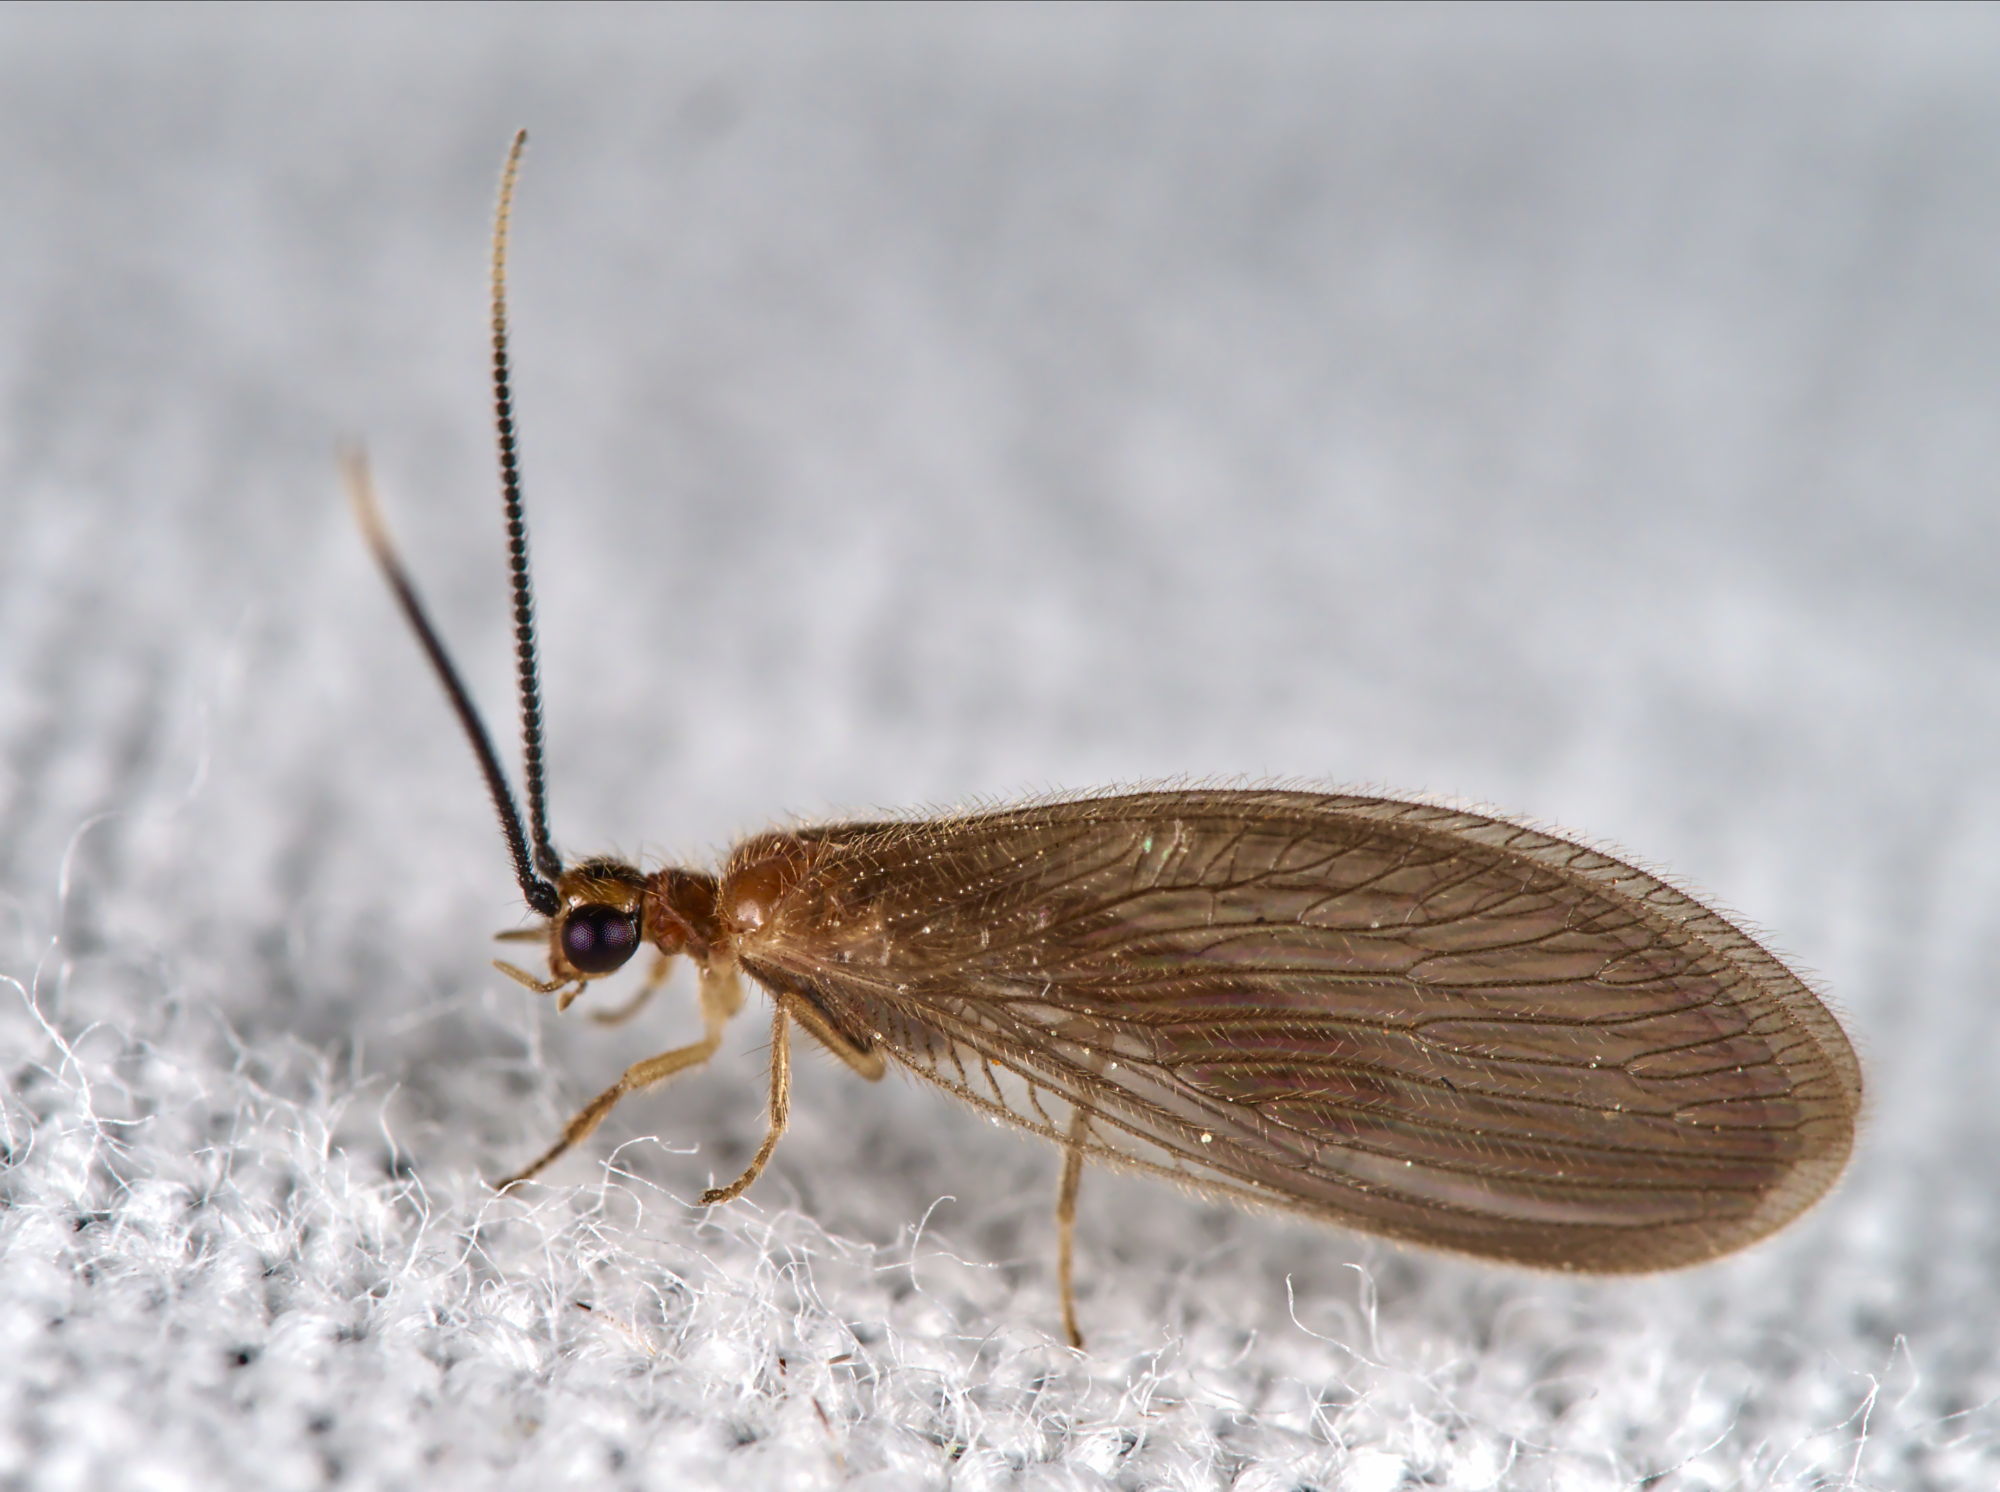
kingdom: Animalia
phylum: Arthropoda
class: Insecta
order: Neuroptera
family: Sisyridae
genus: Sisyra
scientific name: Sisyra terminalis
